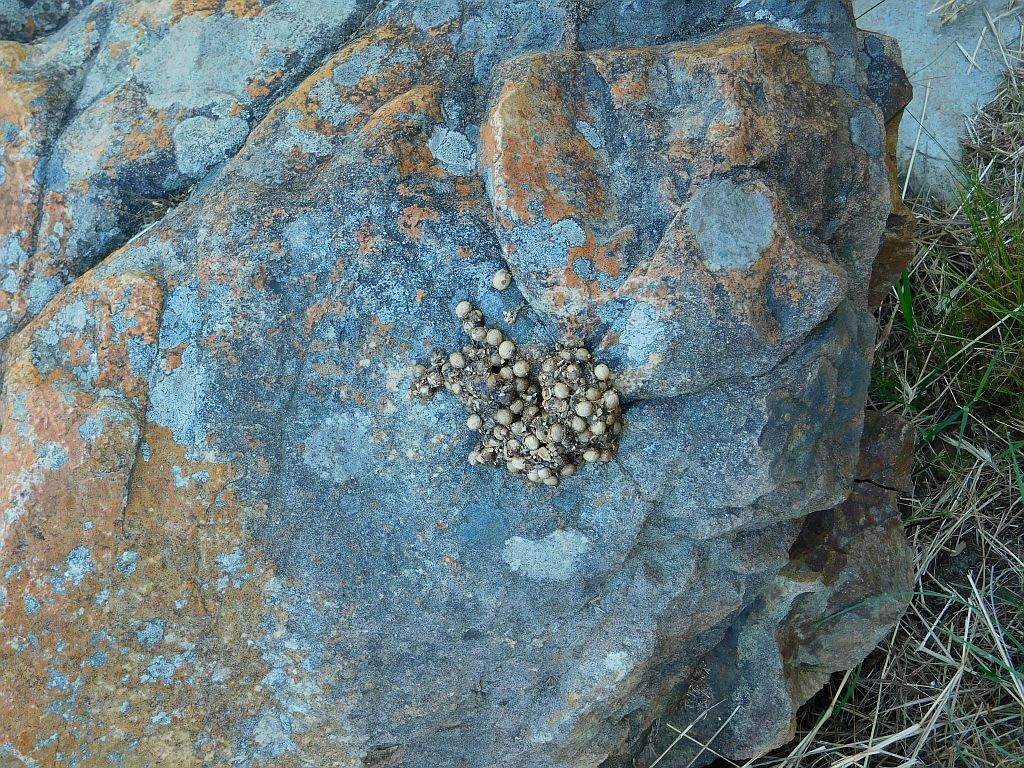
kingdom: Animalia
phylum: Chordata
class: Mammalia
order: Primates
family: Cercopithecidae
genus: Papio
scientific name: Papio ursinus
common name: Chacma baboon
